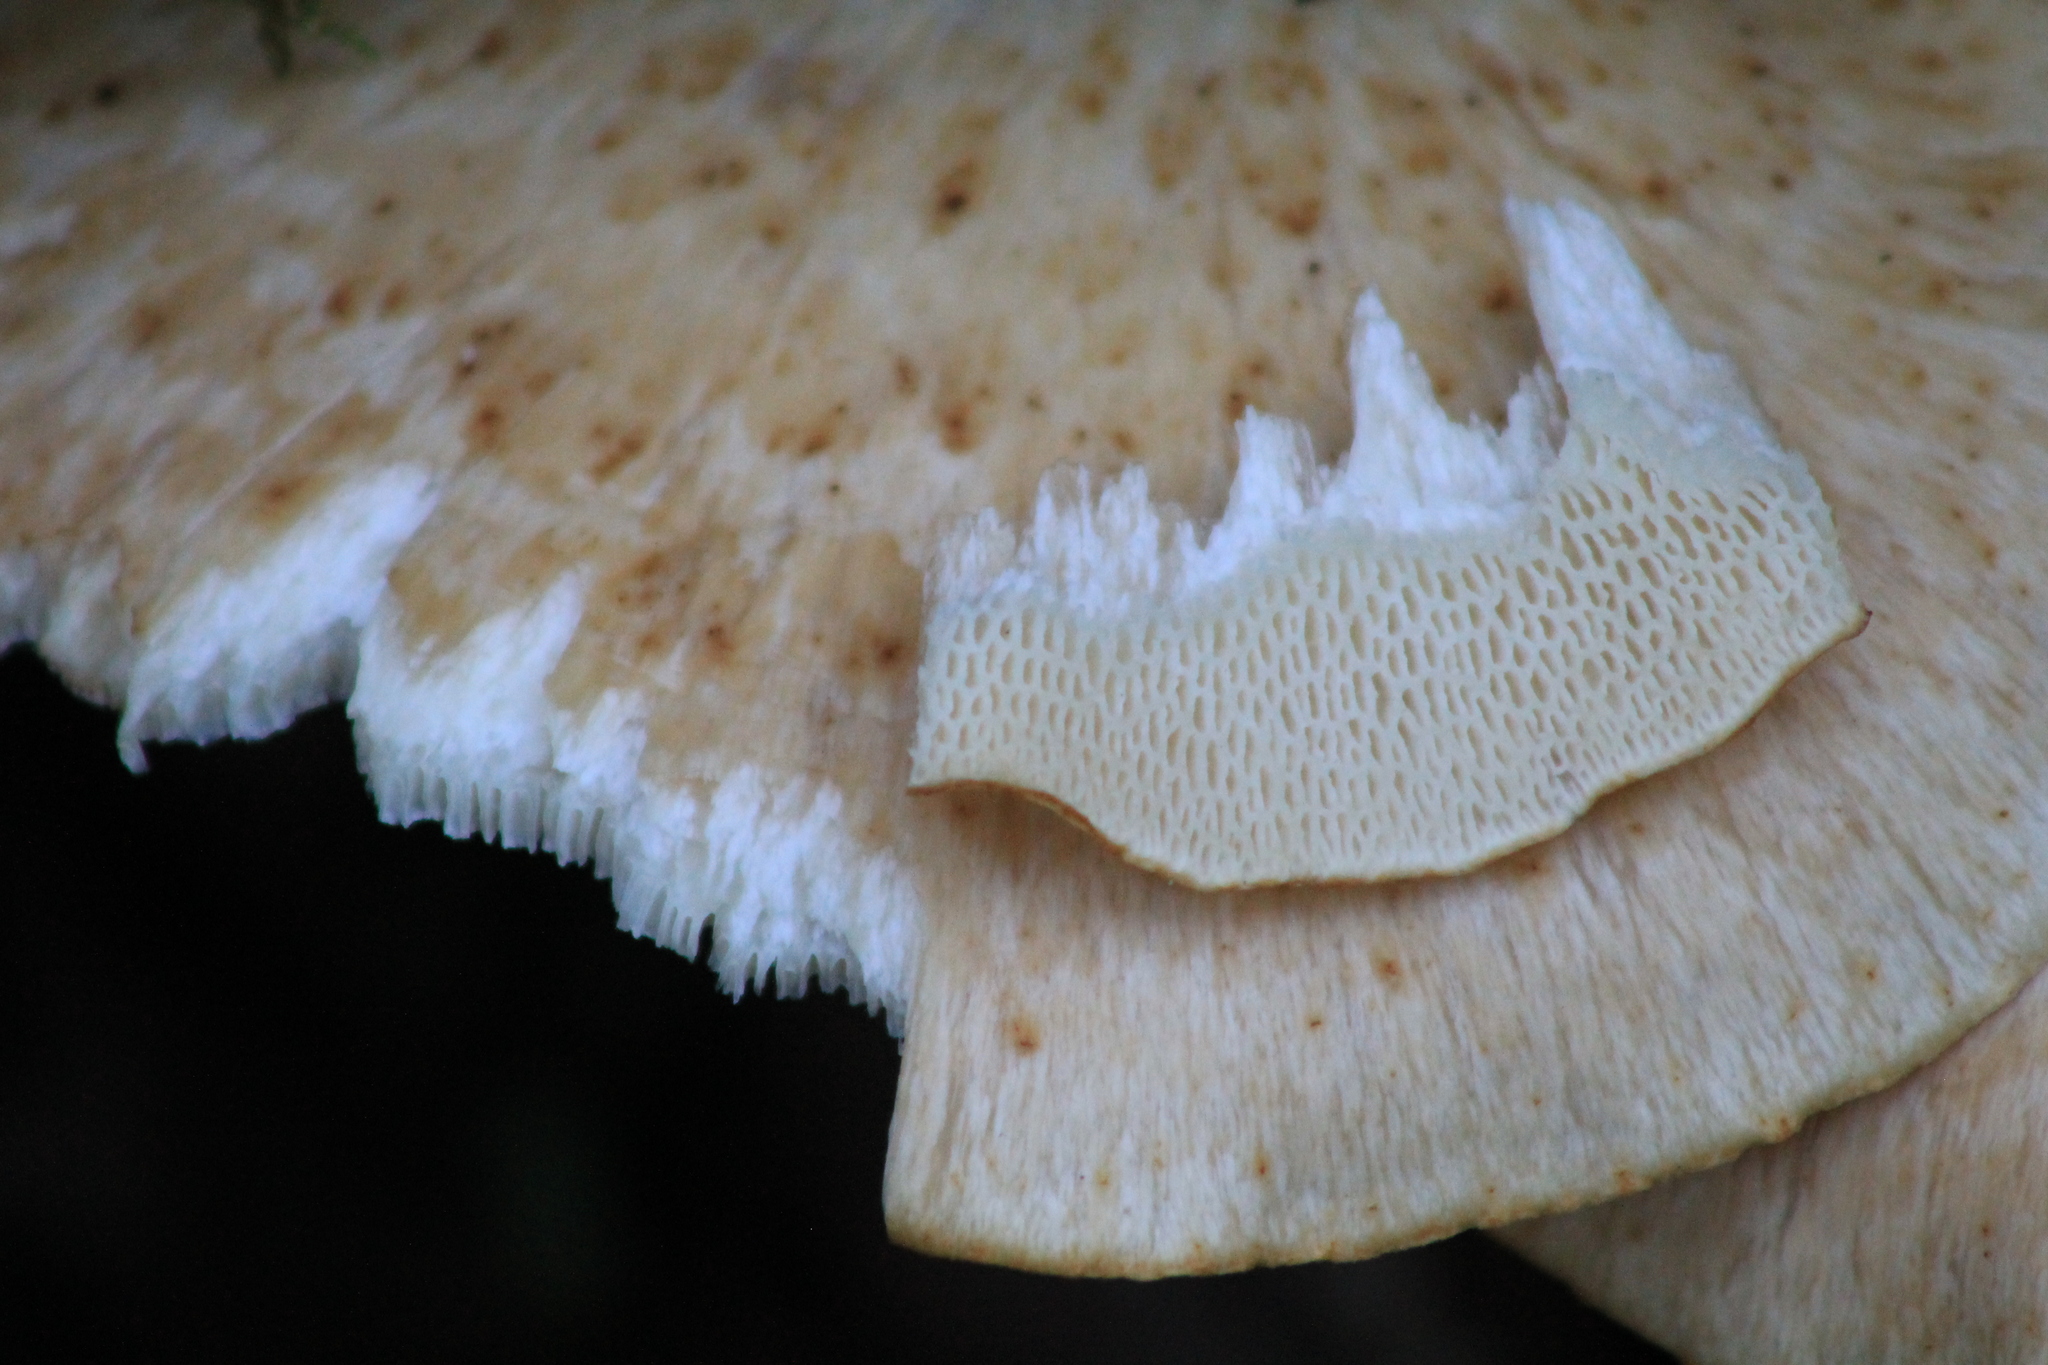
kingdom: Fungi
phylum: Basidiomycota
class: Agaricomycetes
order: Polyporales
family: Polyporaceae
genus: Cerioporus
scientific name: Cerioporus squamosus
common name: Dryad's saddle
